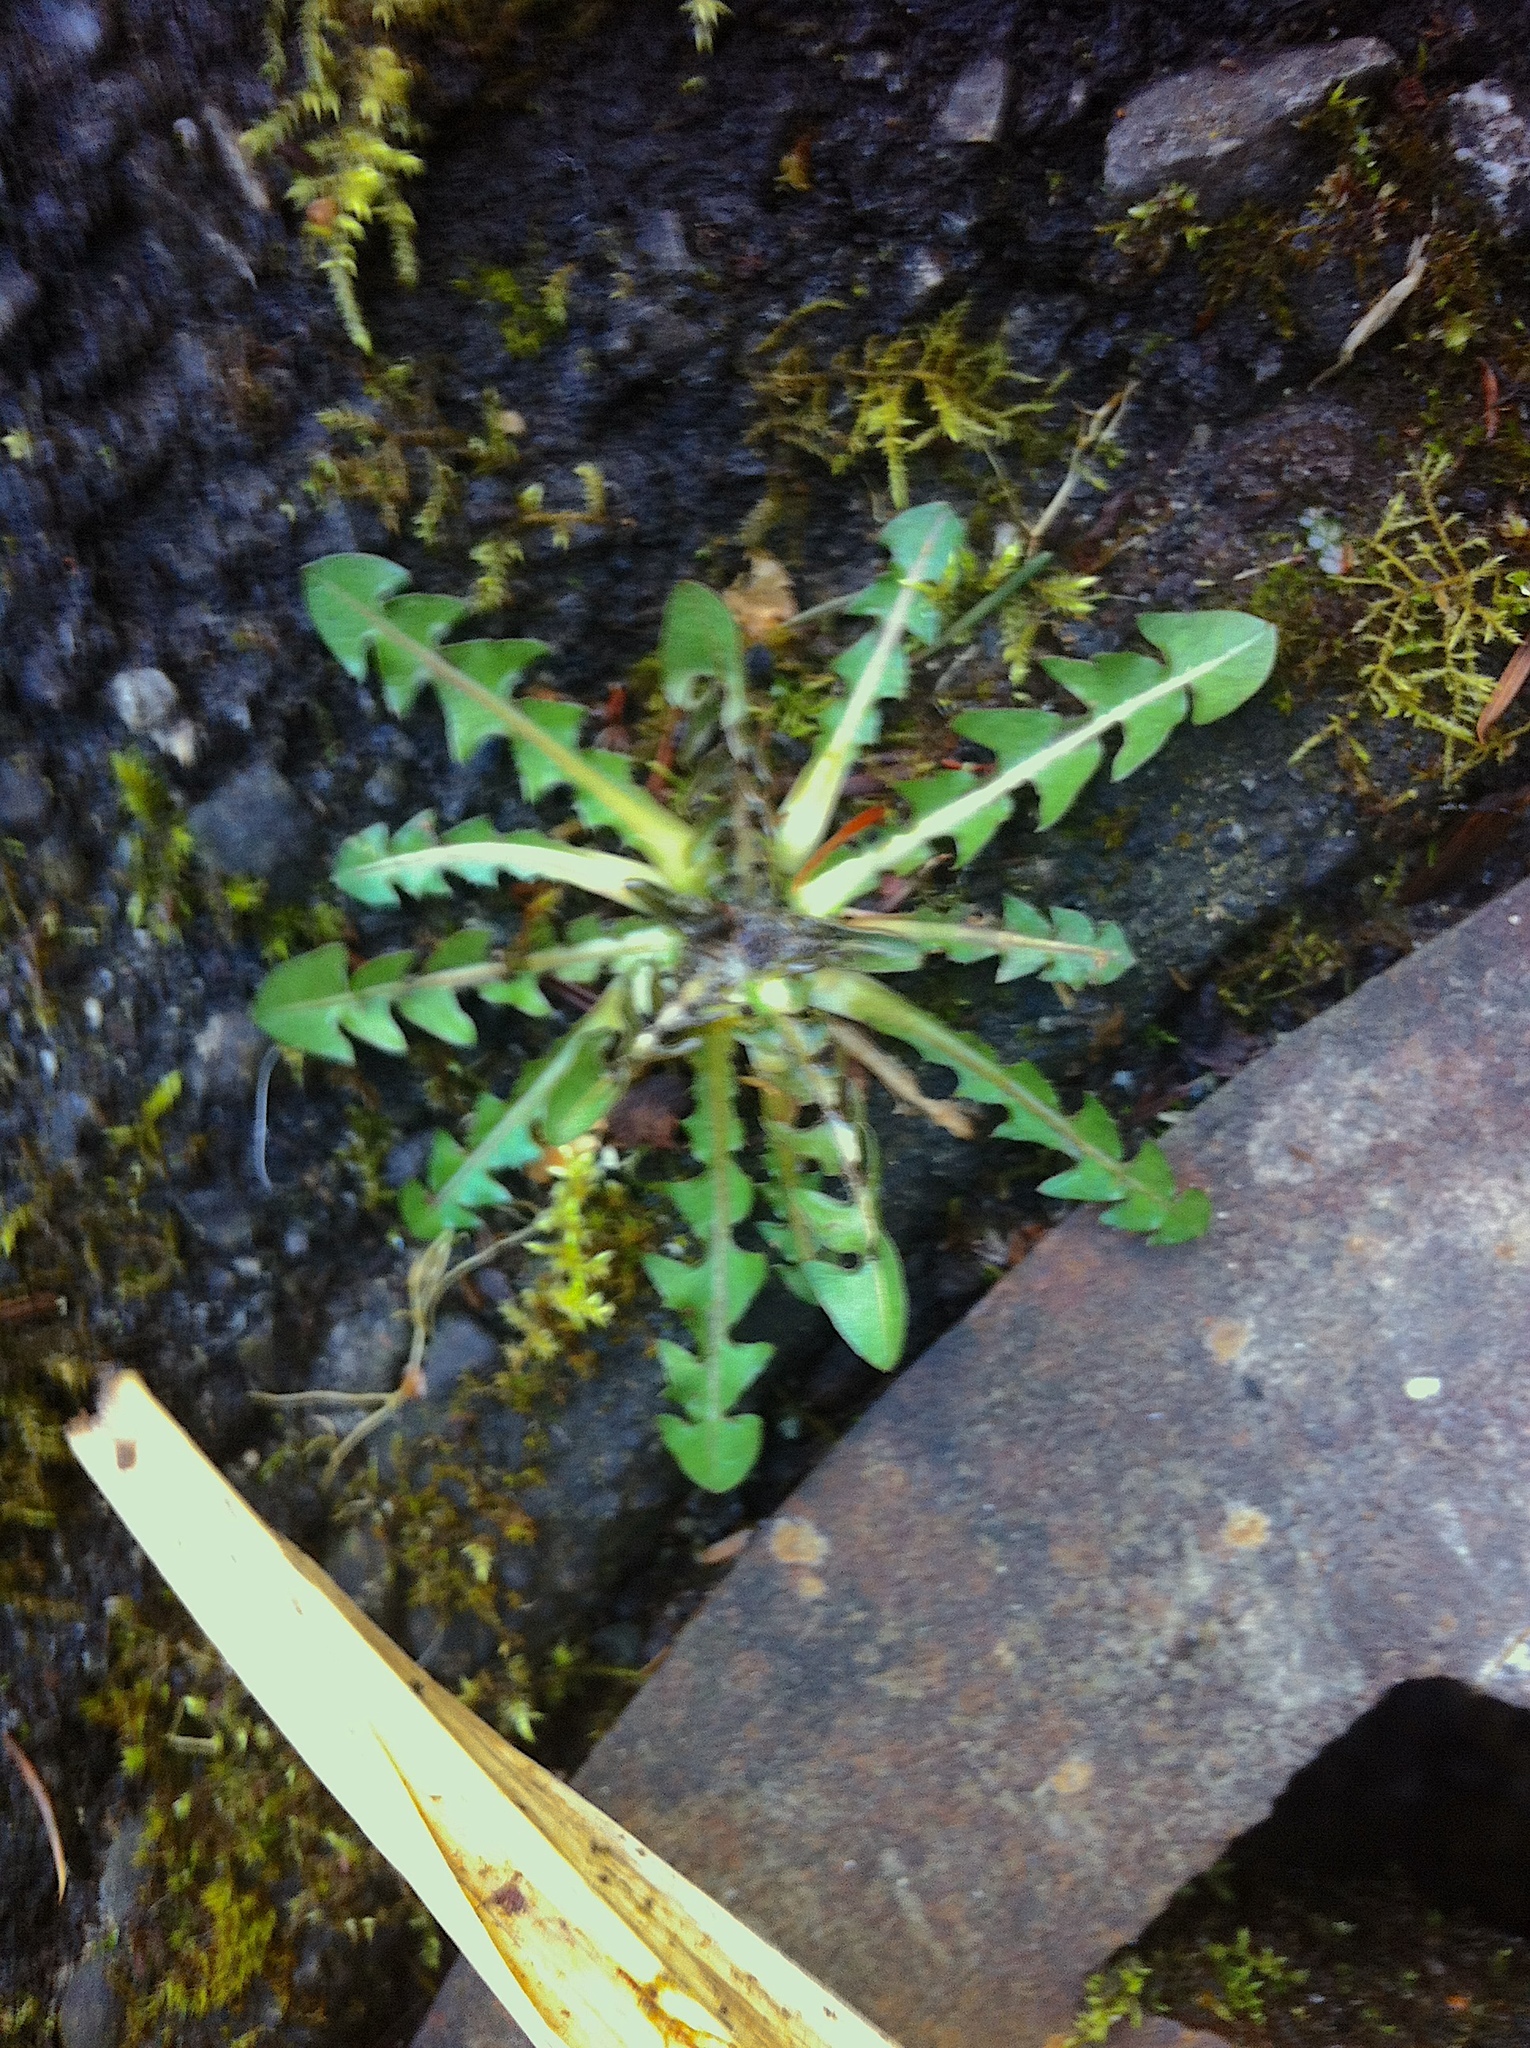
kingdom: Plantae
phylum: Tracheophyta
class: Magnoliopsida
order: Asterales
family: Asteraceae
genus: Taraxacum
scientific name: Taraxacum officinale
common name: Common dandelion
